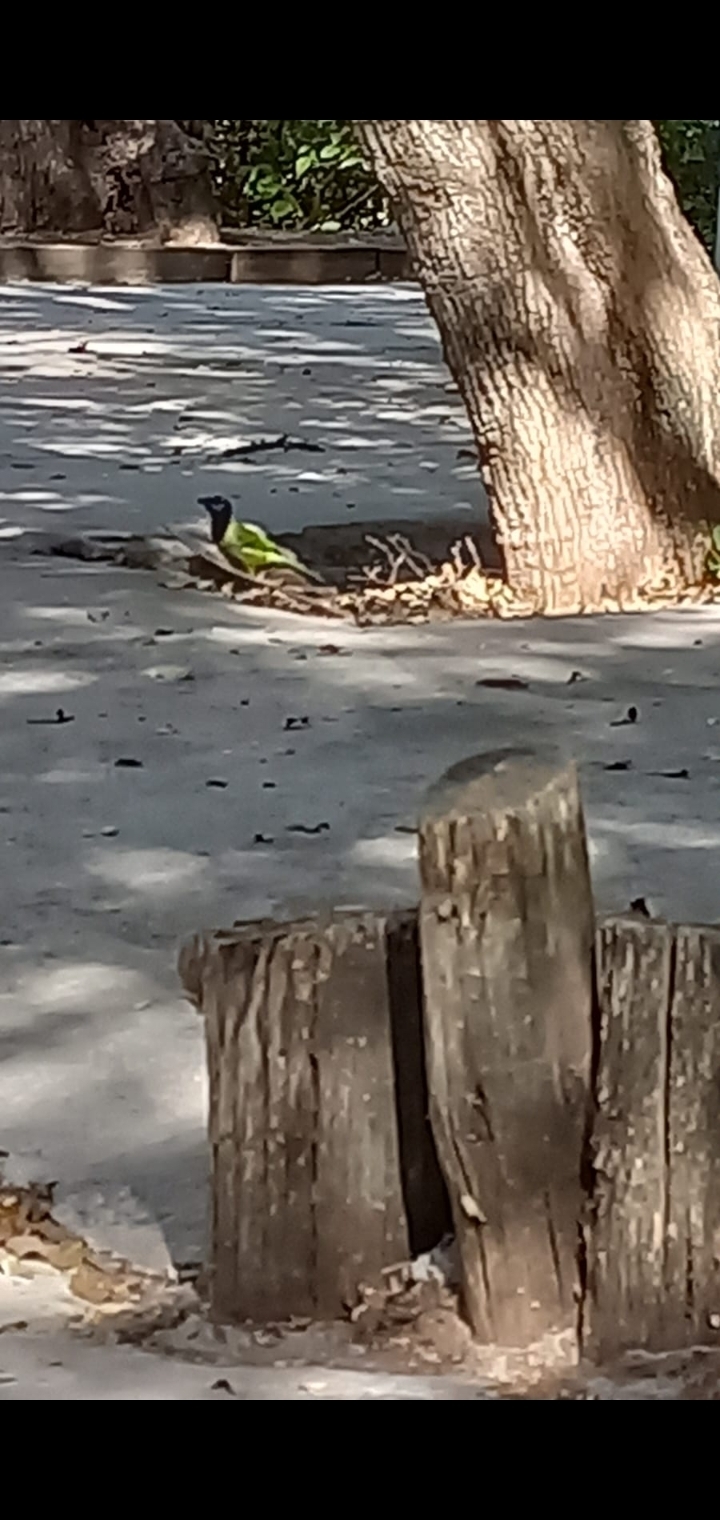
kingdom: Animalia
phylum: Chordata
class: Aves
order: Passeriformes
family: Corvidae
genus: Cyanocorax
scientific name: Cyanocorax yncas
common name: Green jay
